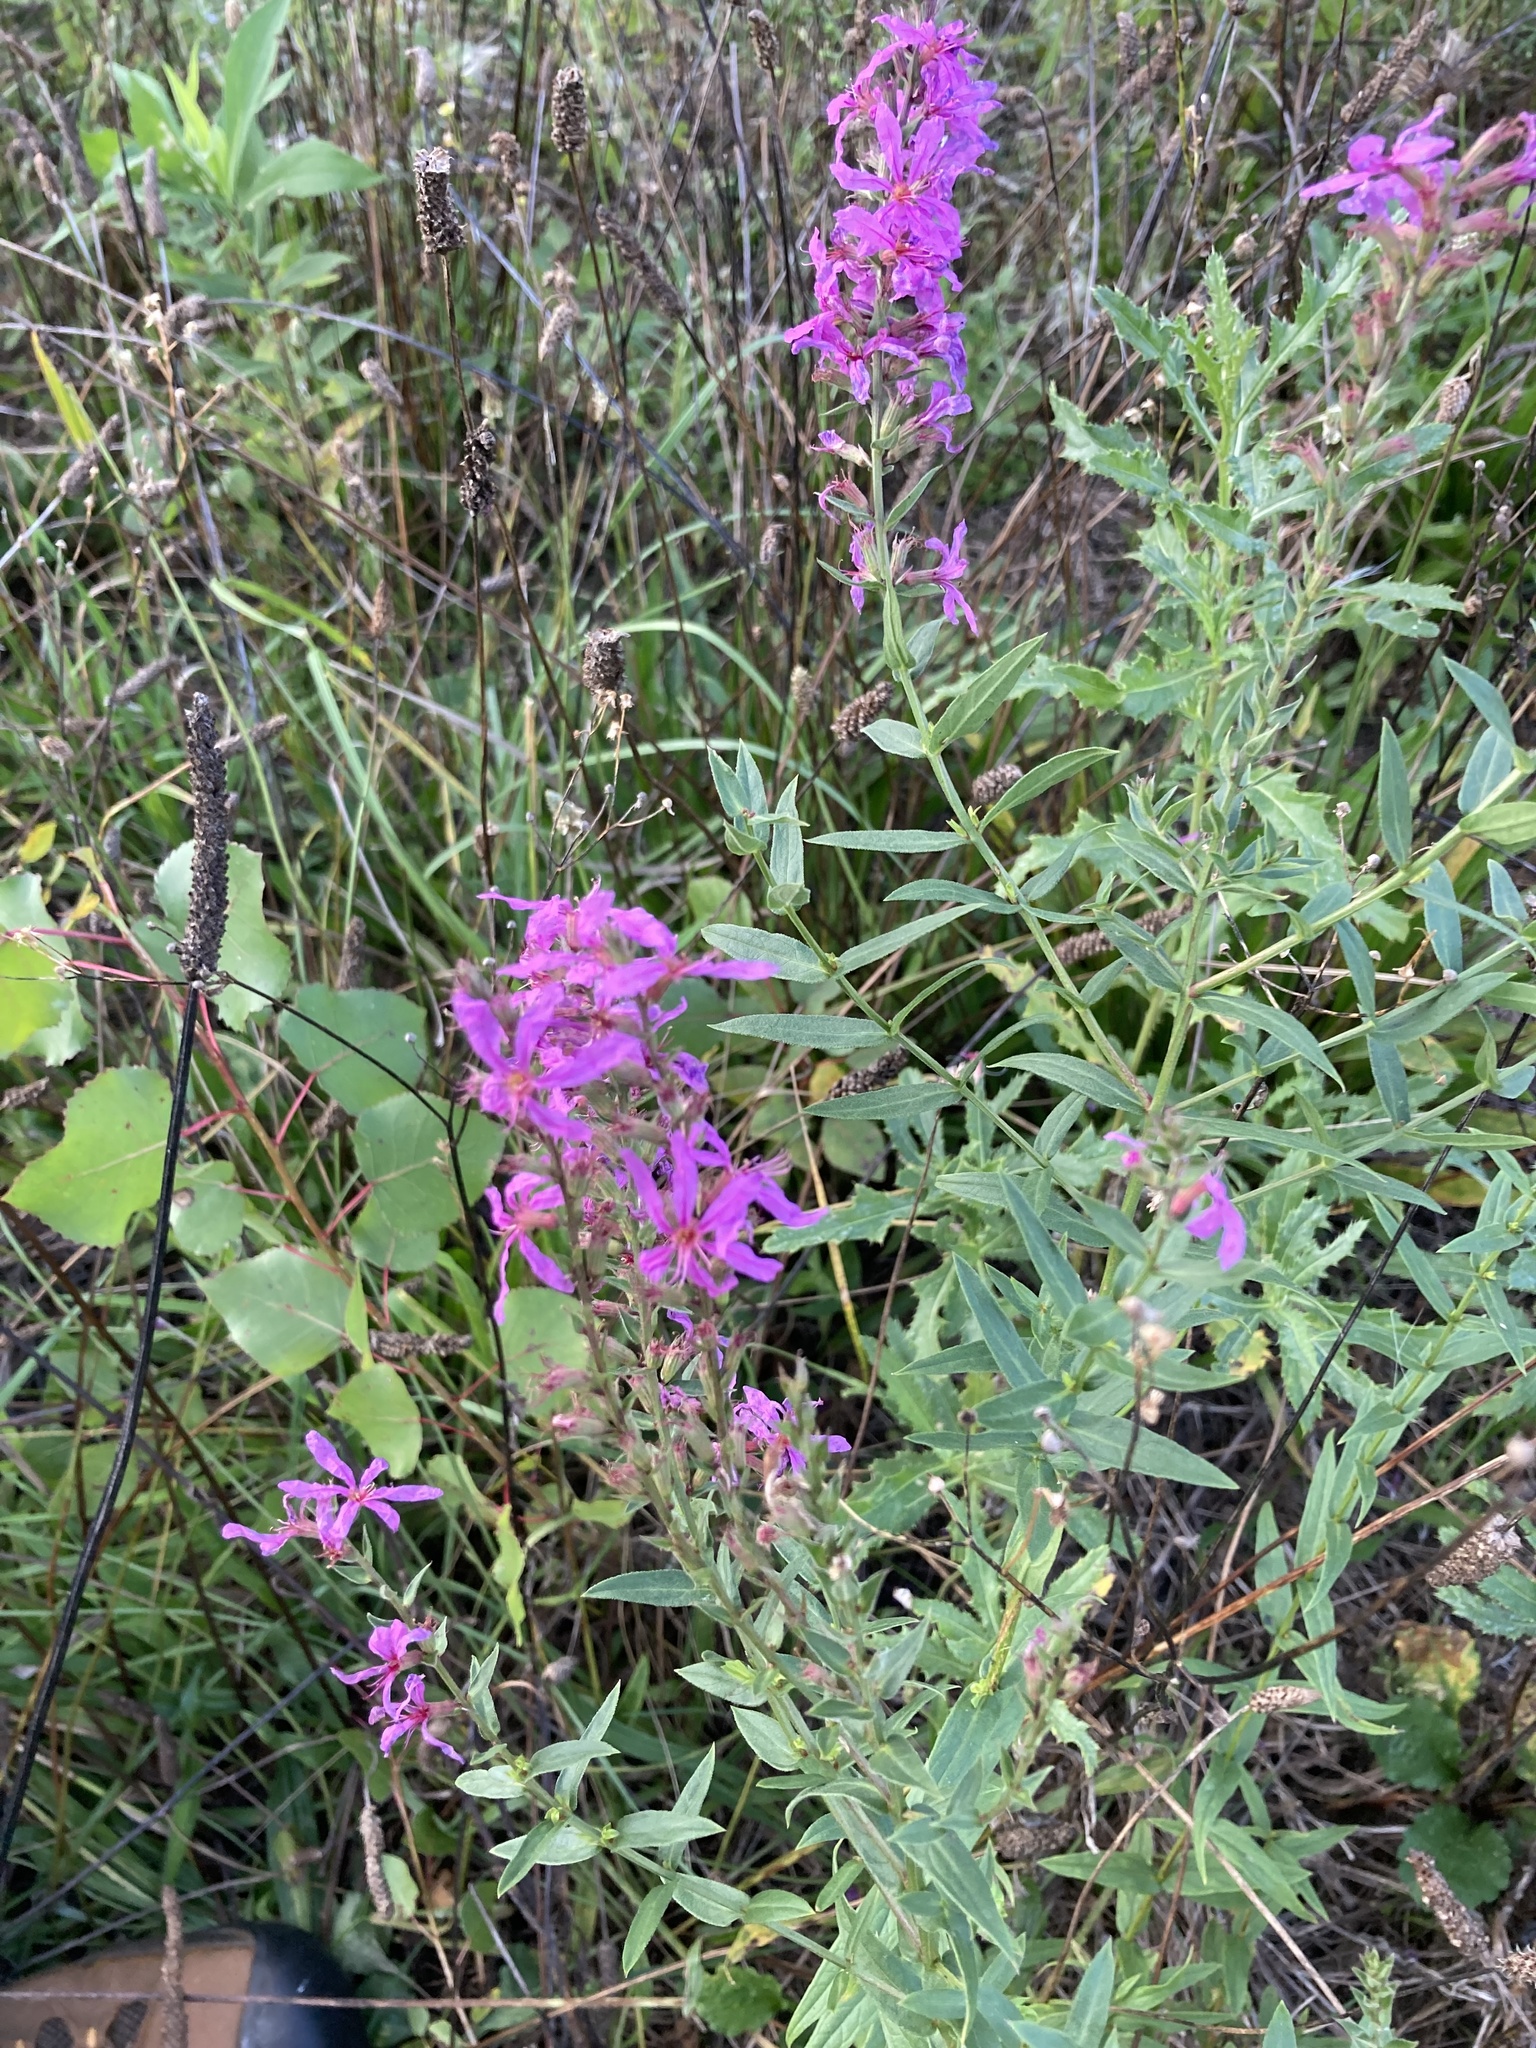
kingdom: Plantae
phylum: Tracheophyta
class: Magnoliopsida
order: Myrtales
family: Lythraceae
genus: Lythrum
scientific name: Lythrum salicaria
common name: Purple loosestrife
